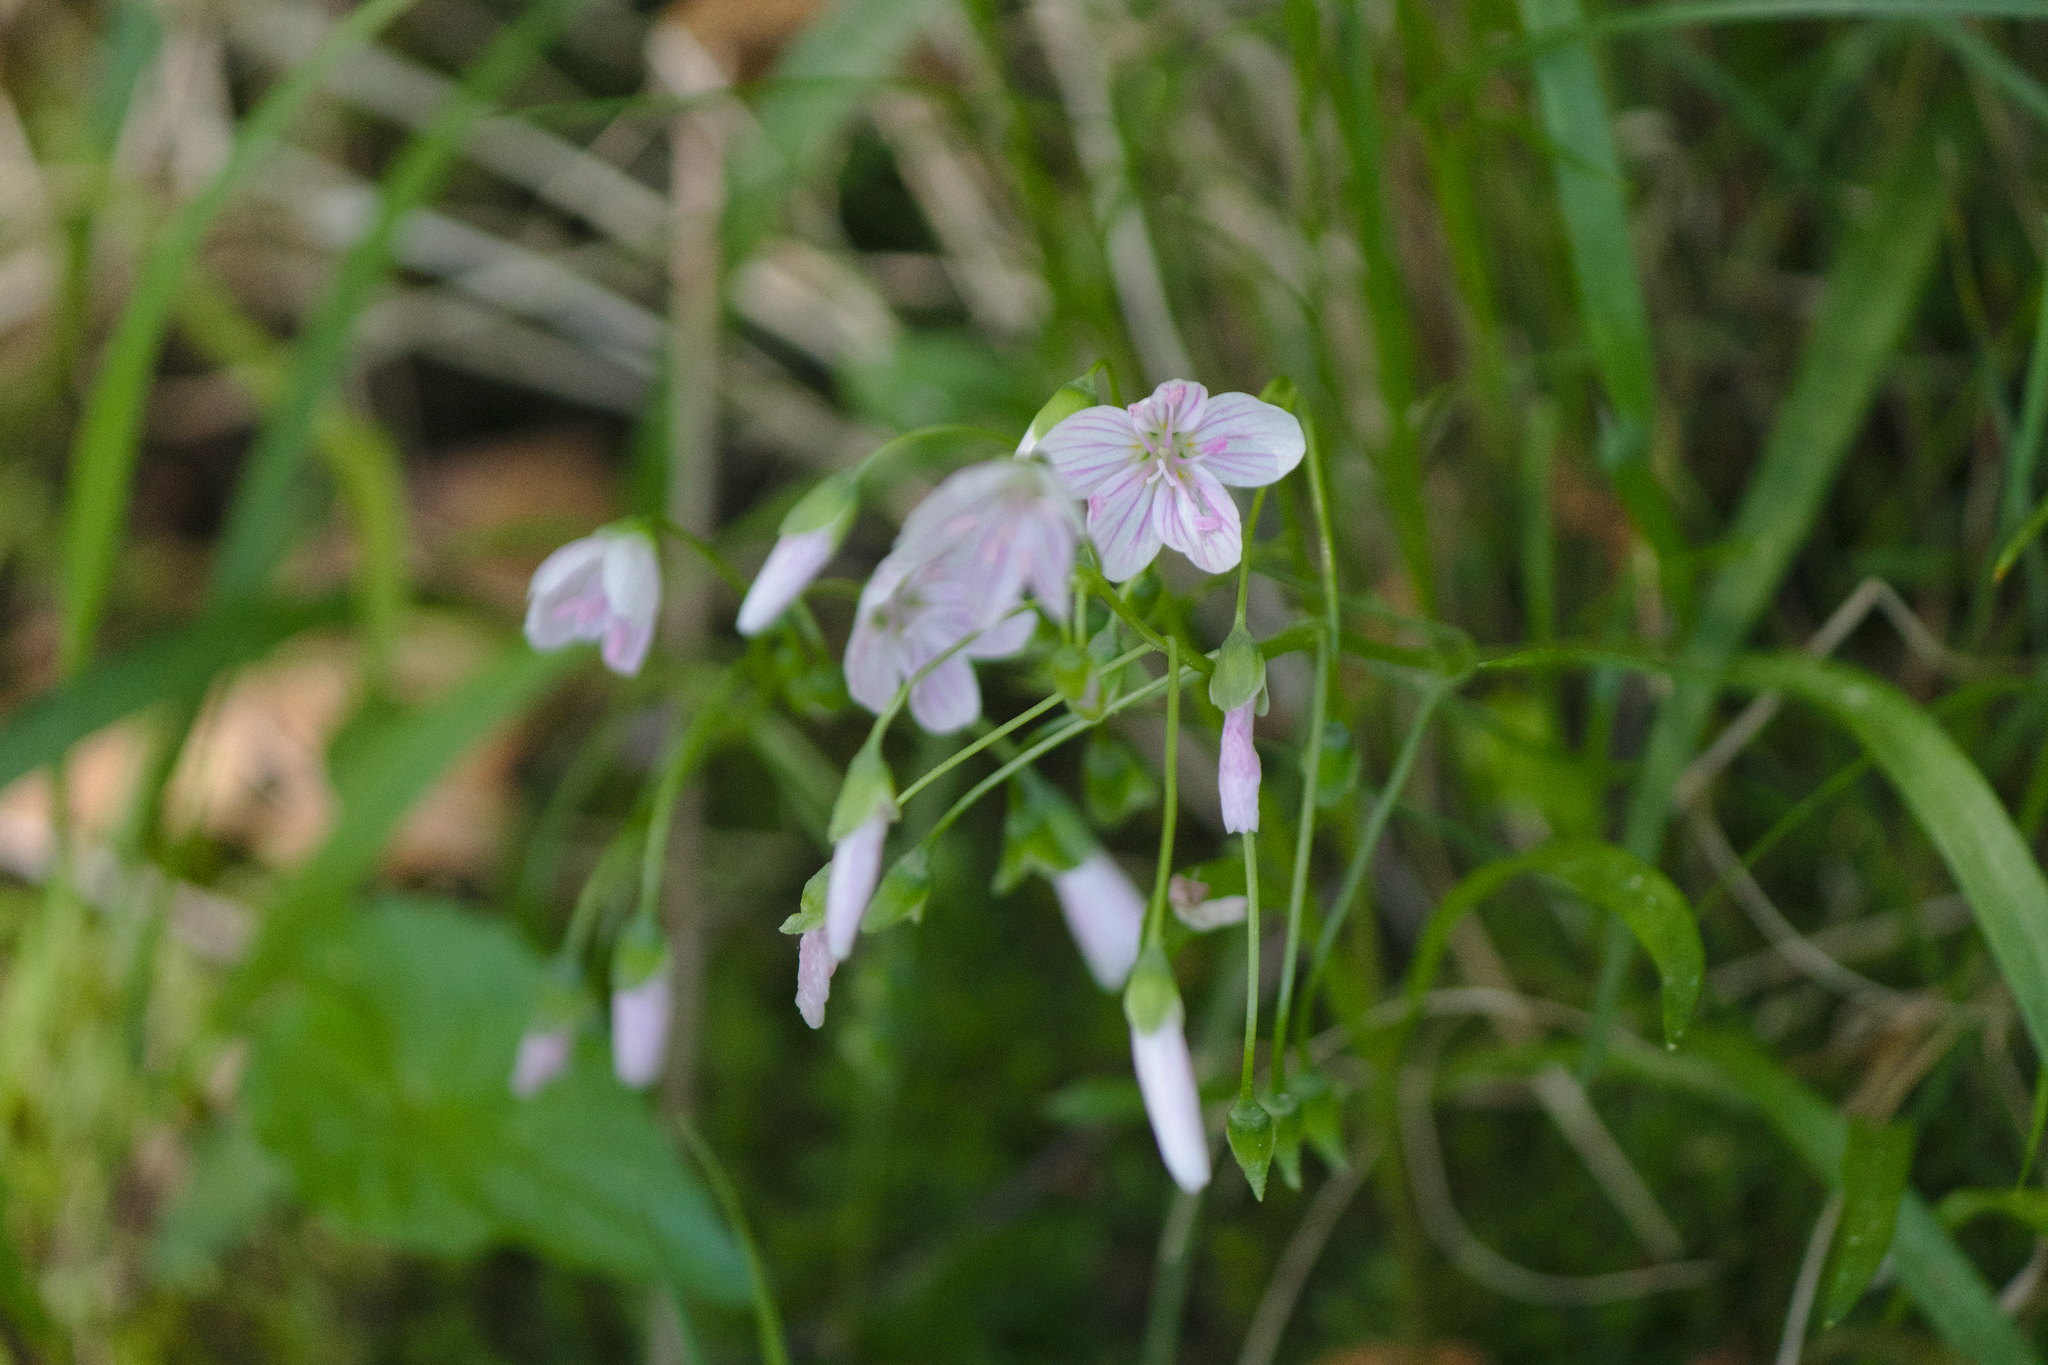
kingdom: Plantae
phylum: Tracheophyta
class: Magnoliopsida
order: Caryophyllales
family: Montiaceae
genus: Claytonia
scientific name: Claytonia virginica
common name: Virginia springbeauty
